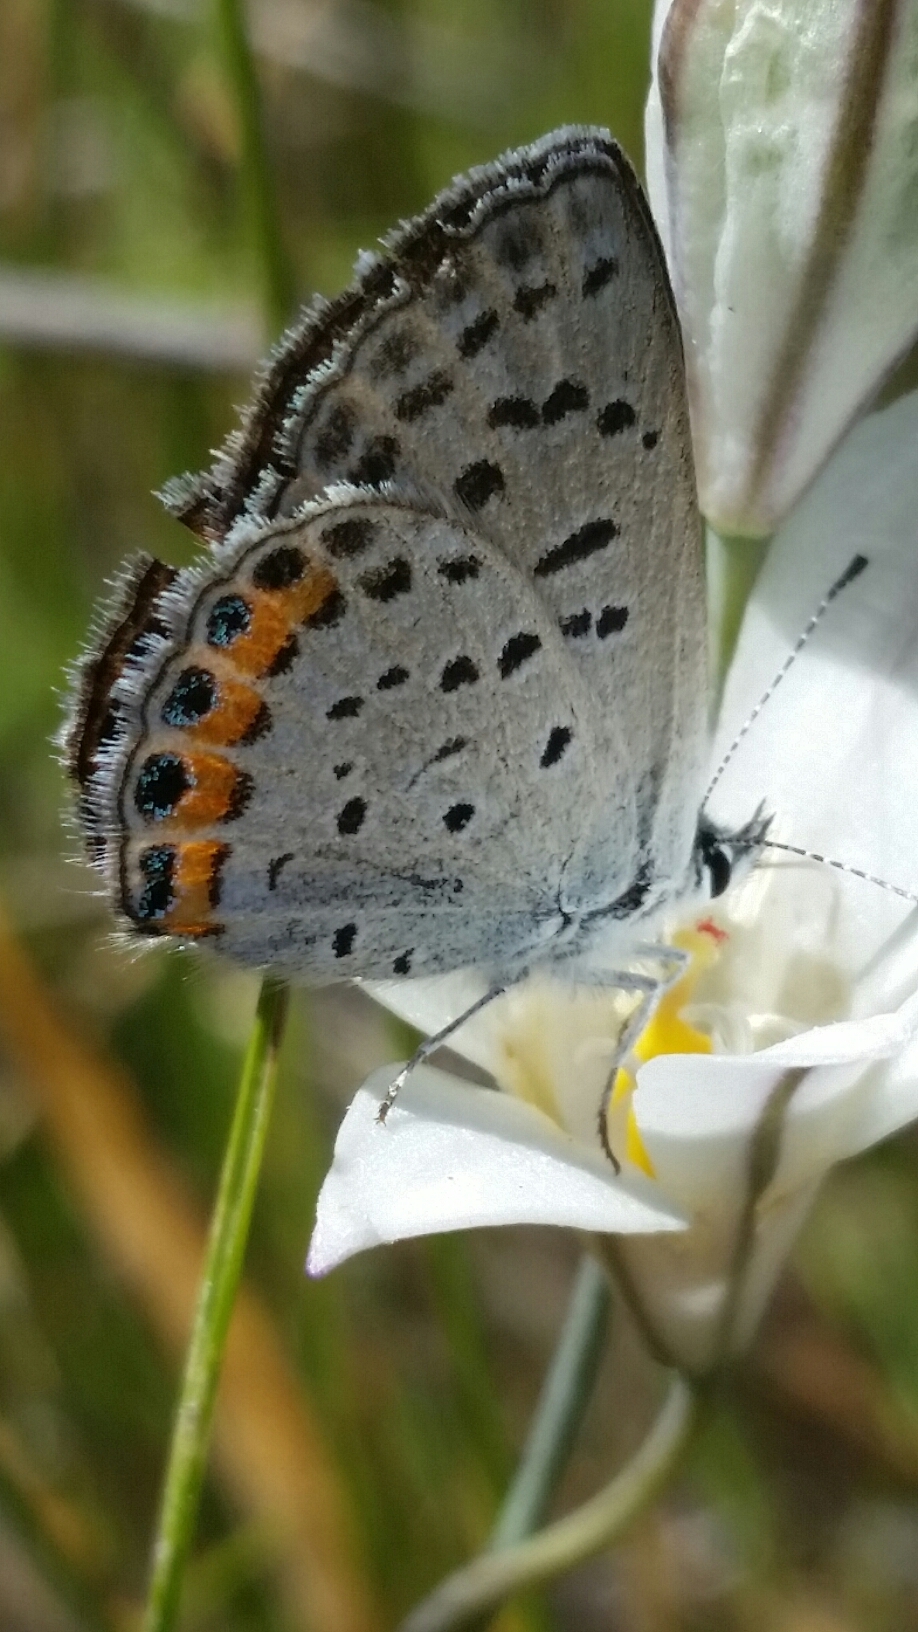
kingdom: Animalia
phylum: Arthropoda
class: Insecta
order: Lepidoptera
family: Lycaenidae
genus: Icaricia
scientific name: Icaricia acmon
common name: Acmon blue
